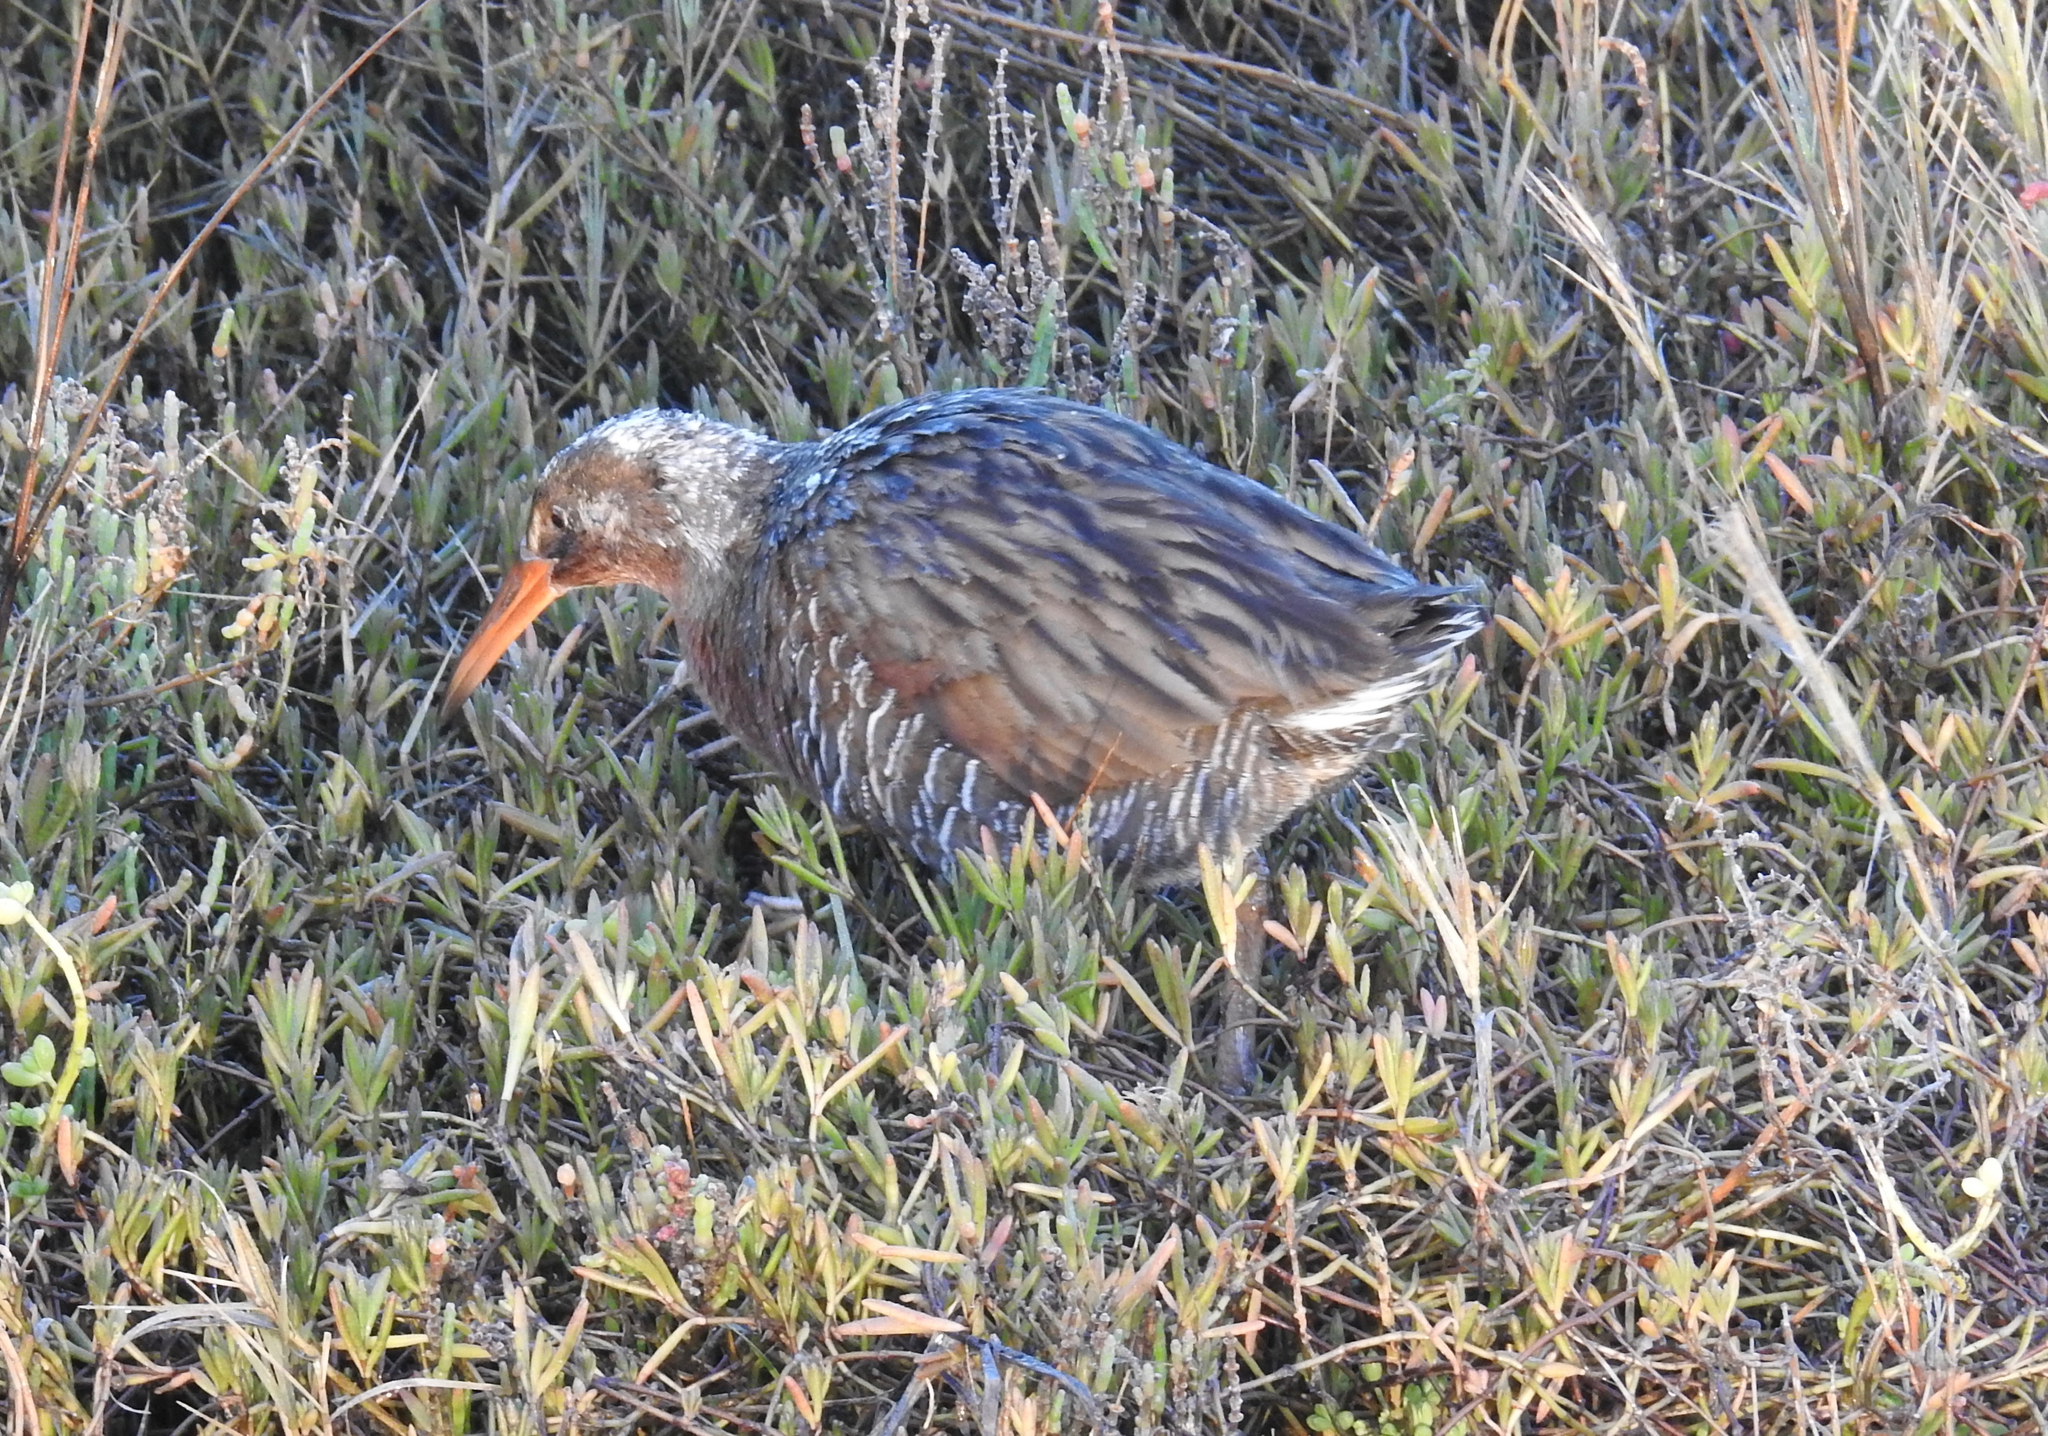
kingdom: Animalia
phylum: Chordata
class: Aves
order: Gruiformes
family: Rallidae
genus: Rallus
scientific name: Rallus obsoletus
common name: Ridgway's rail
